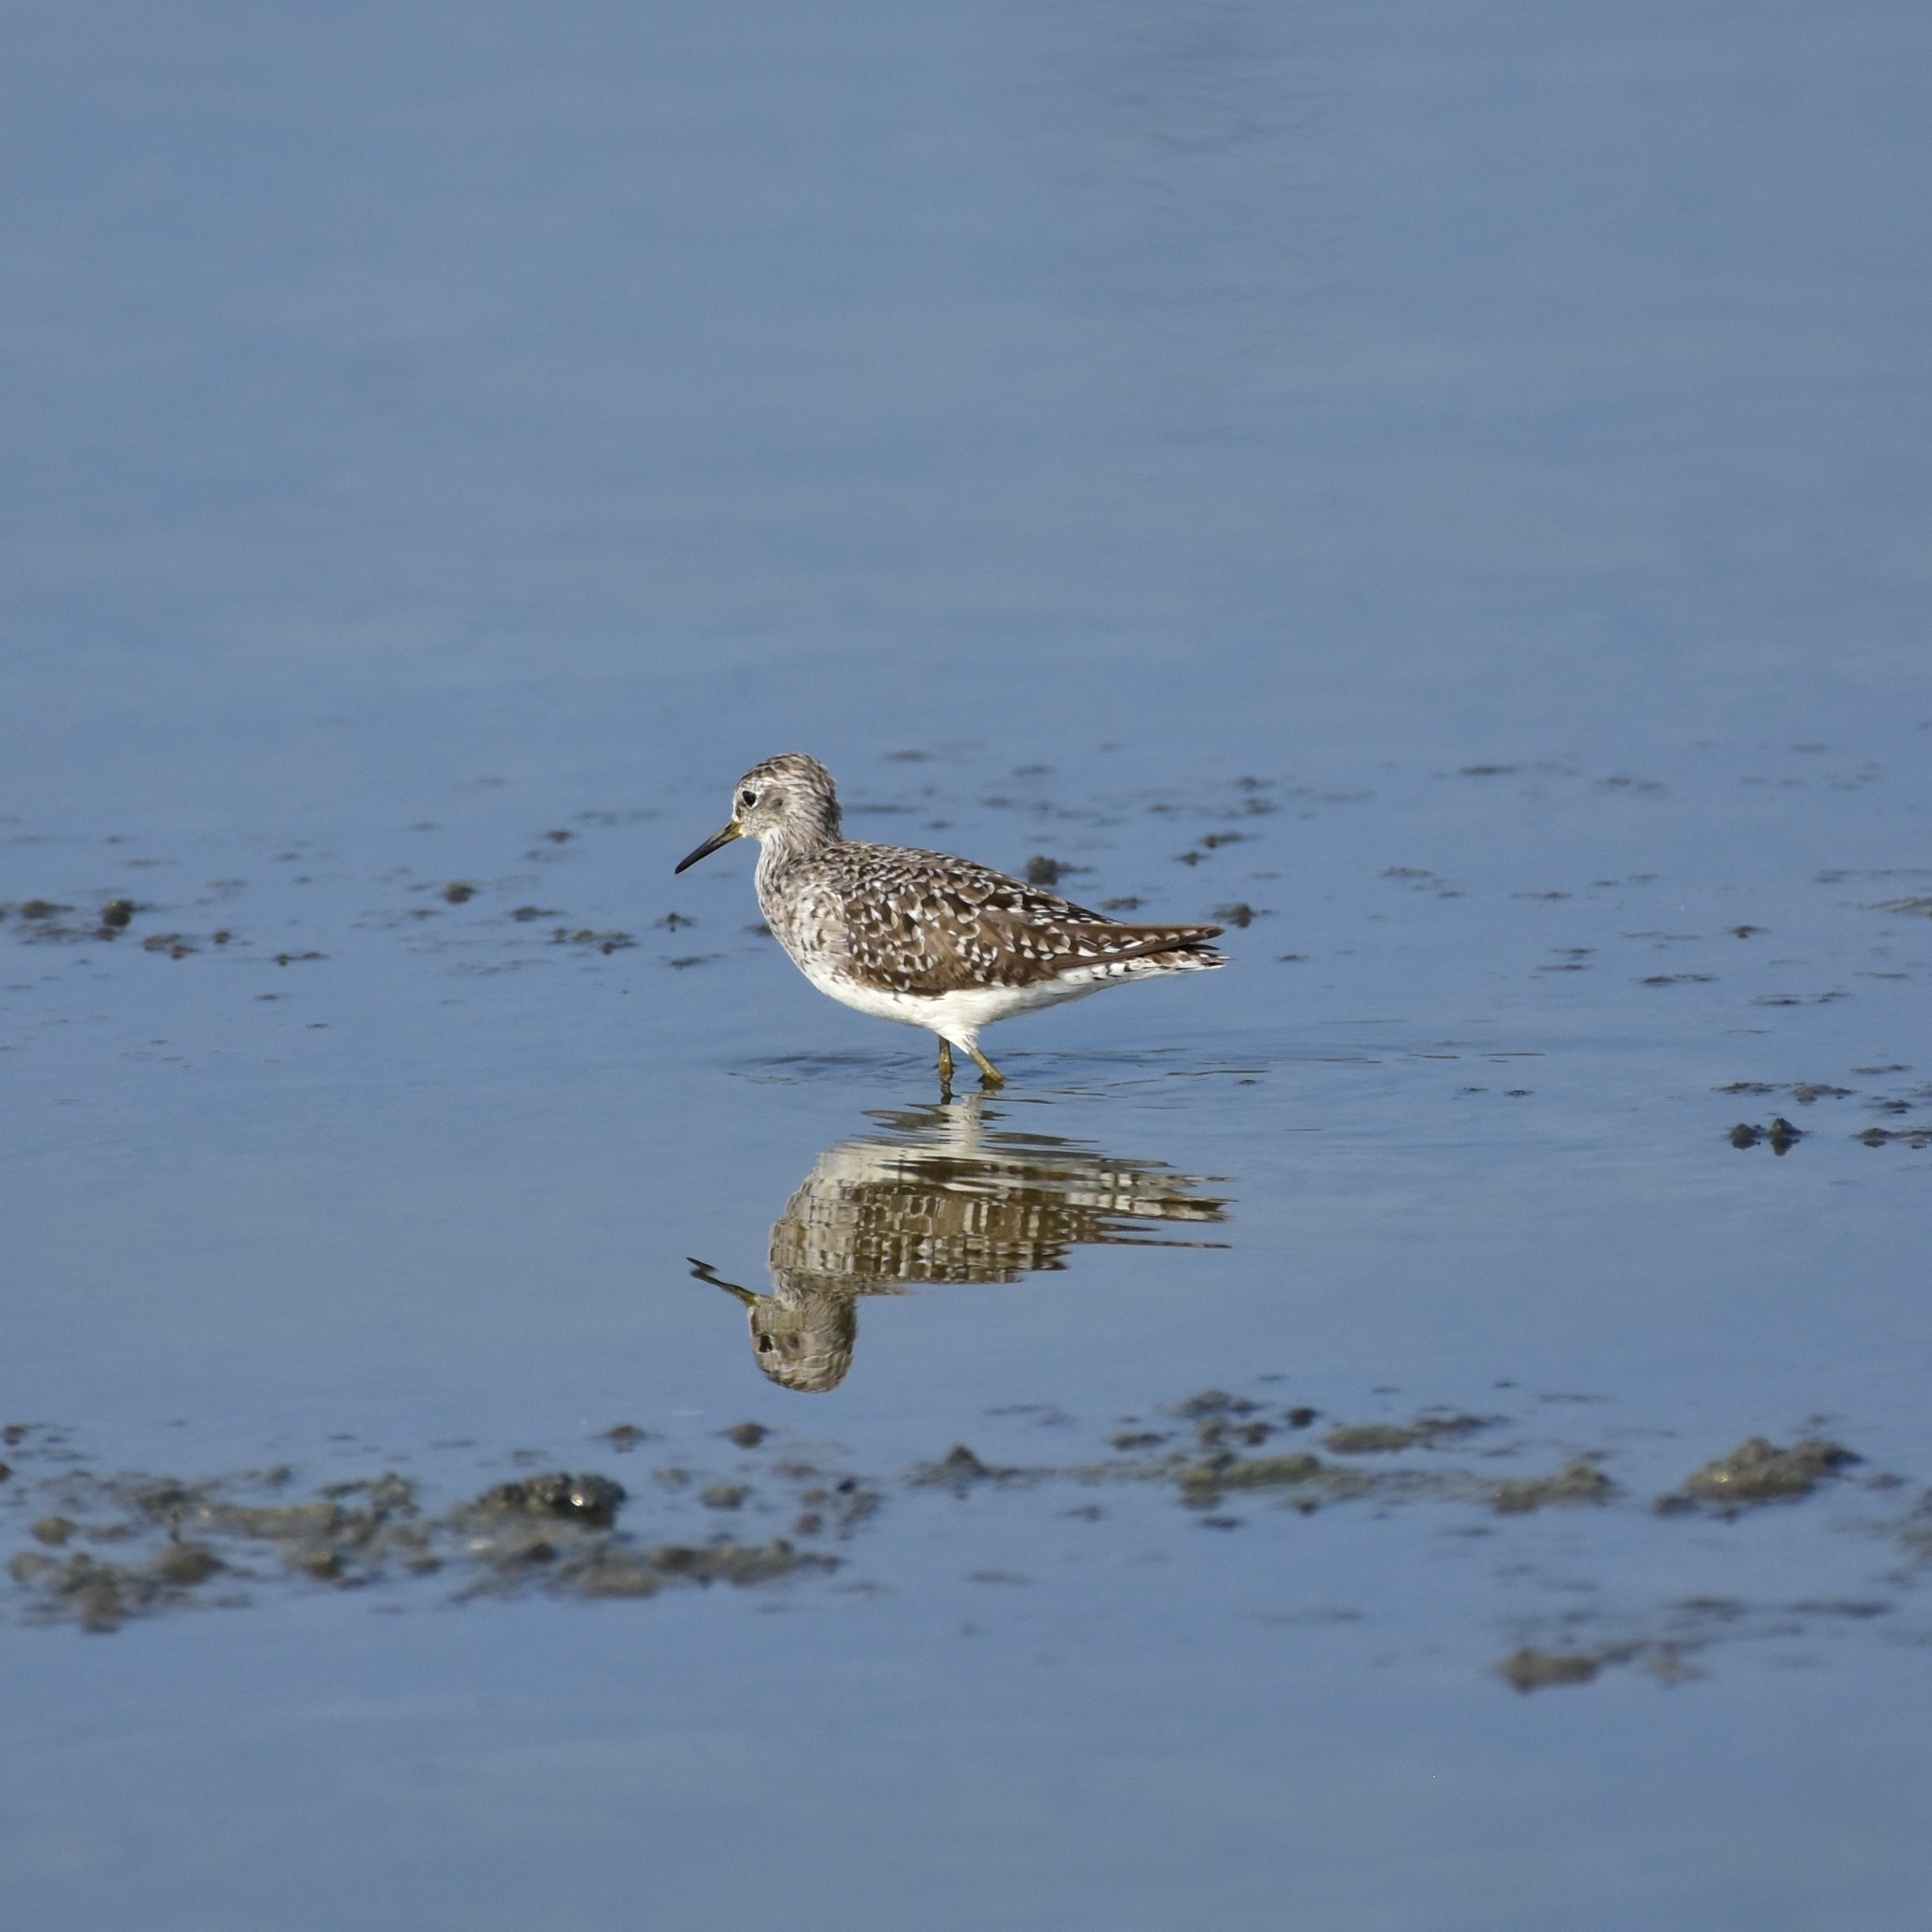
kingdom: Animalia
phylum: Chordata
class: Aves
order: Charadriiformes
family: Scolopacidae
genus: Tringa
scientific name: Tringa glareola
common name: Wood sandpiper
